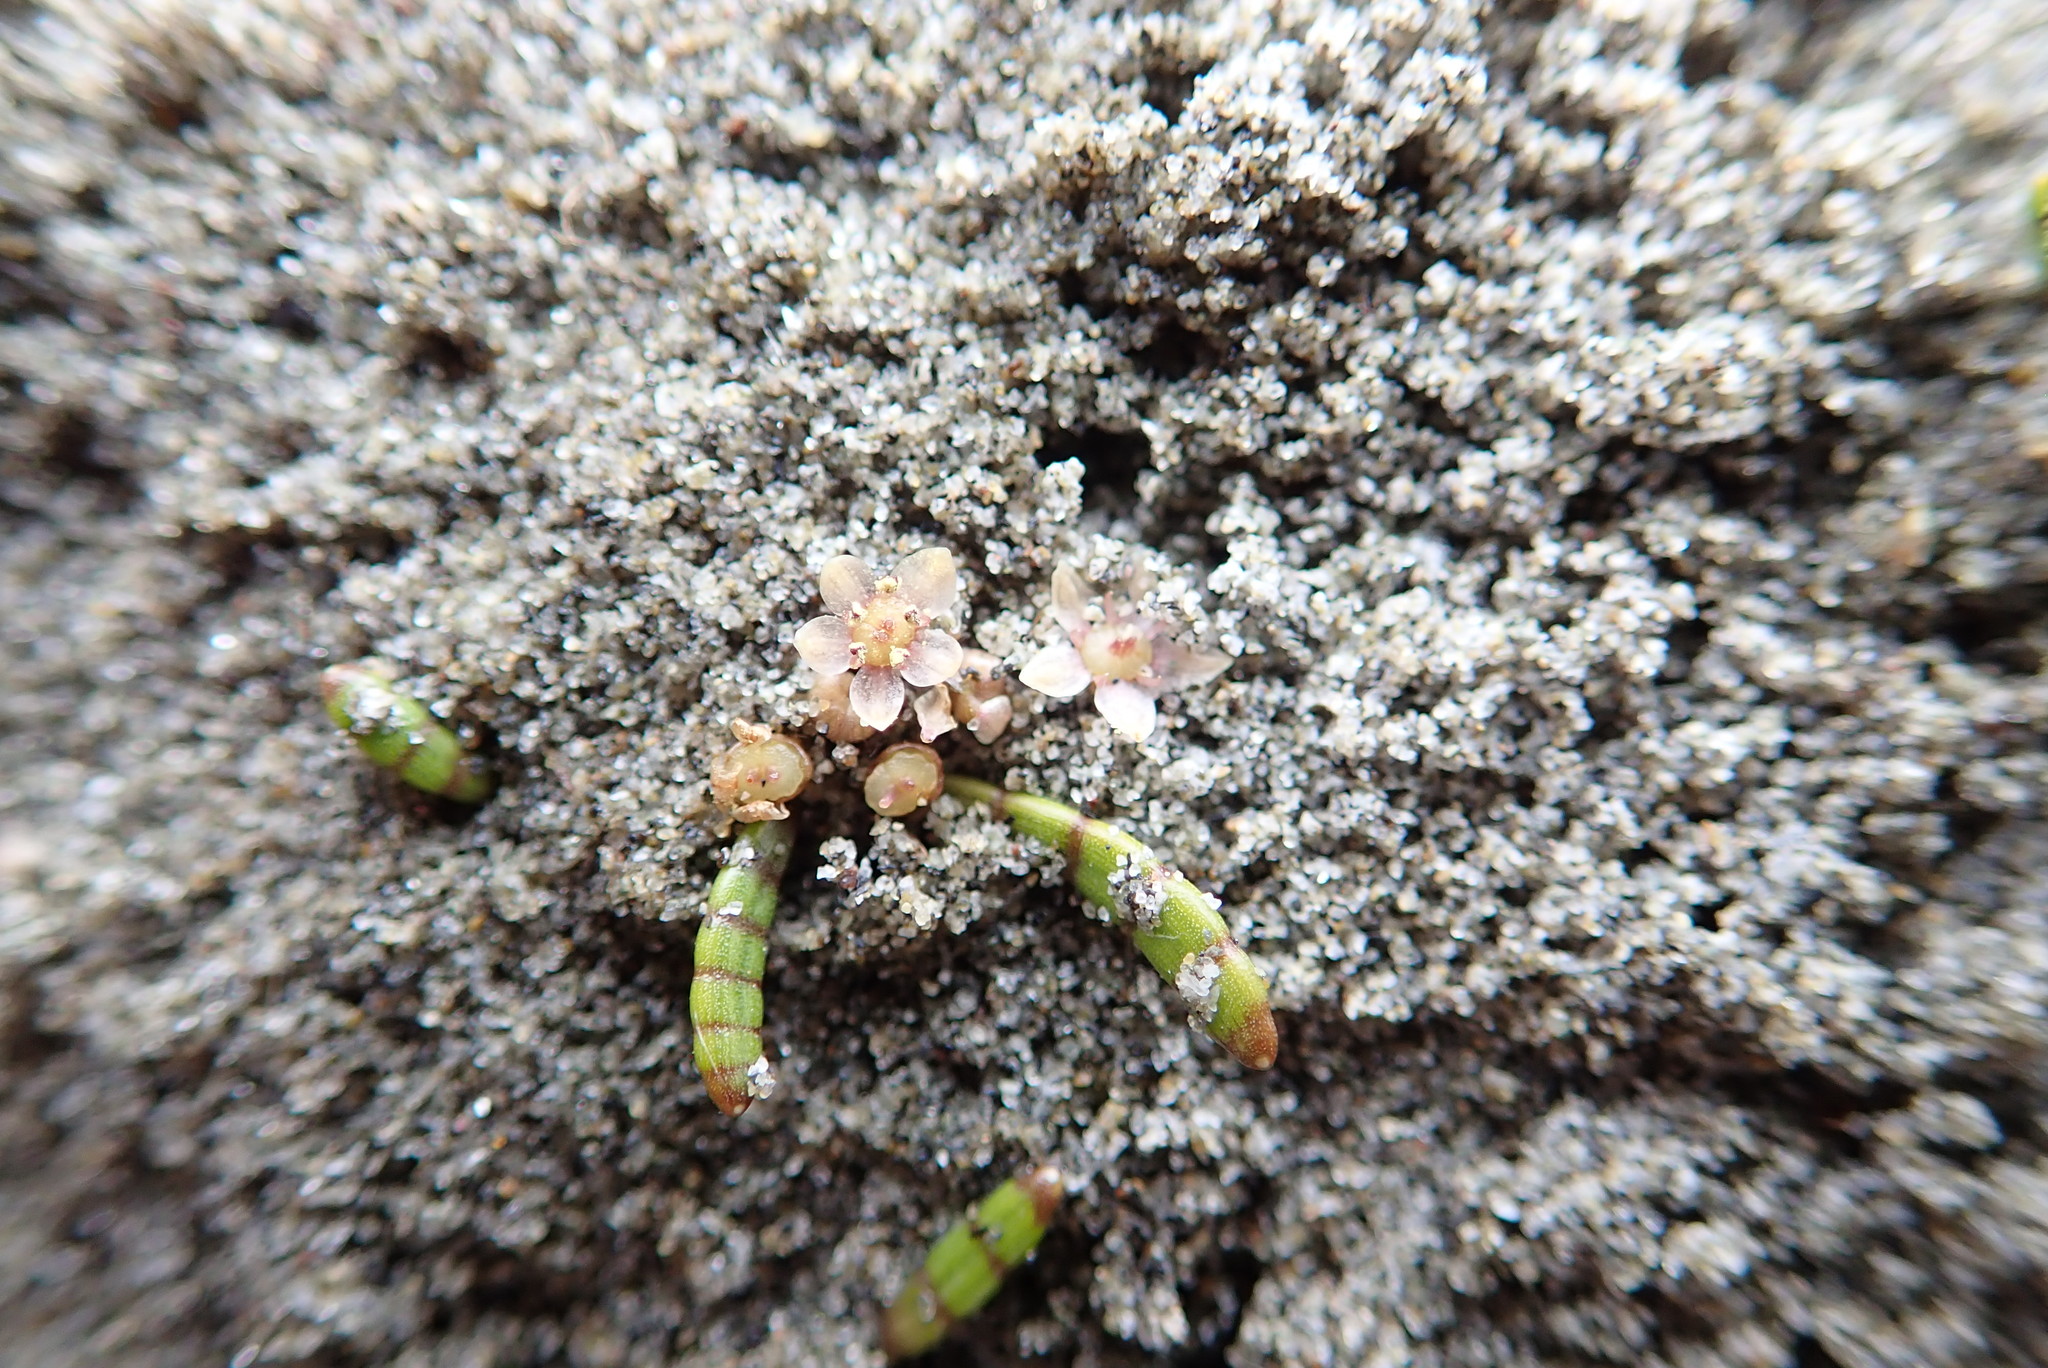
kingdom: Plantae
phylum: Tracheophyta
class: Magnoliopsida
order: Apiales
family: Apiaceae
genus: Lilaeopsis
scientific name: Lilaeopsis novae-zelandiae
